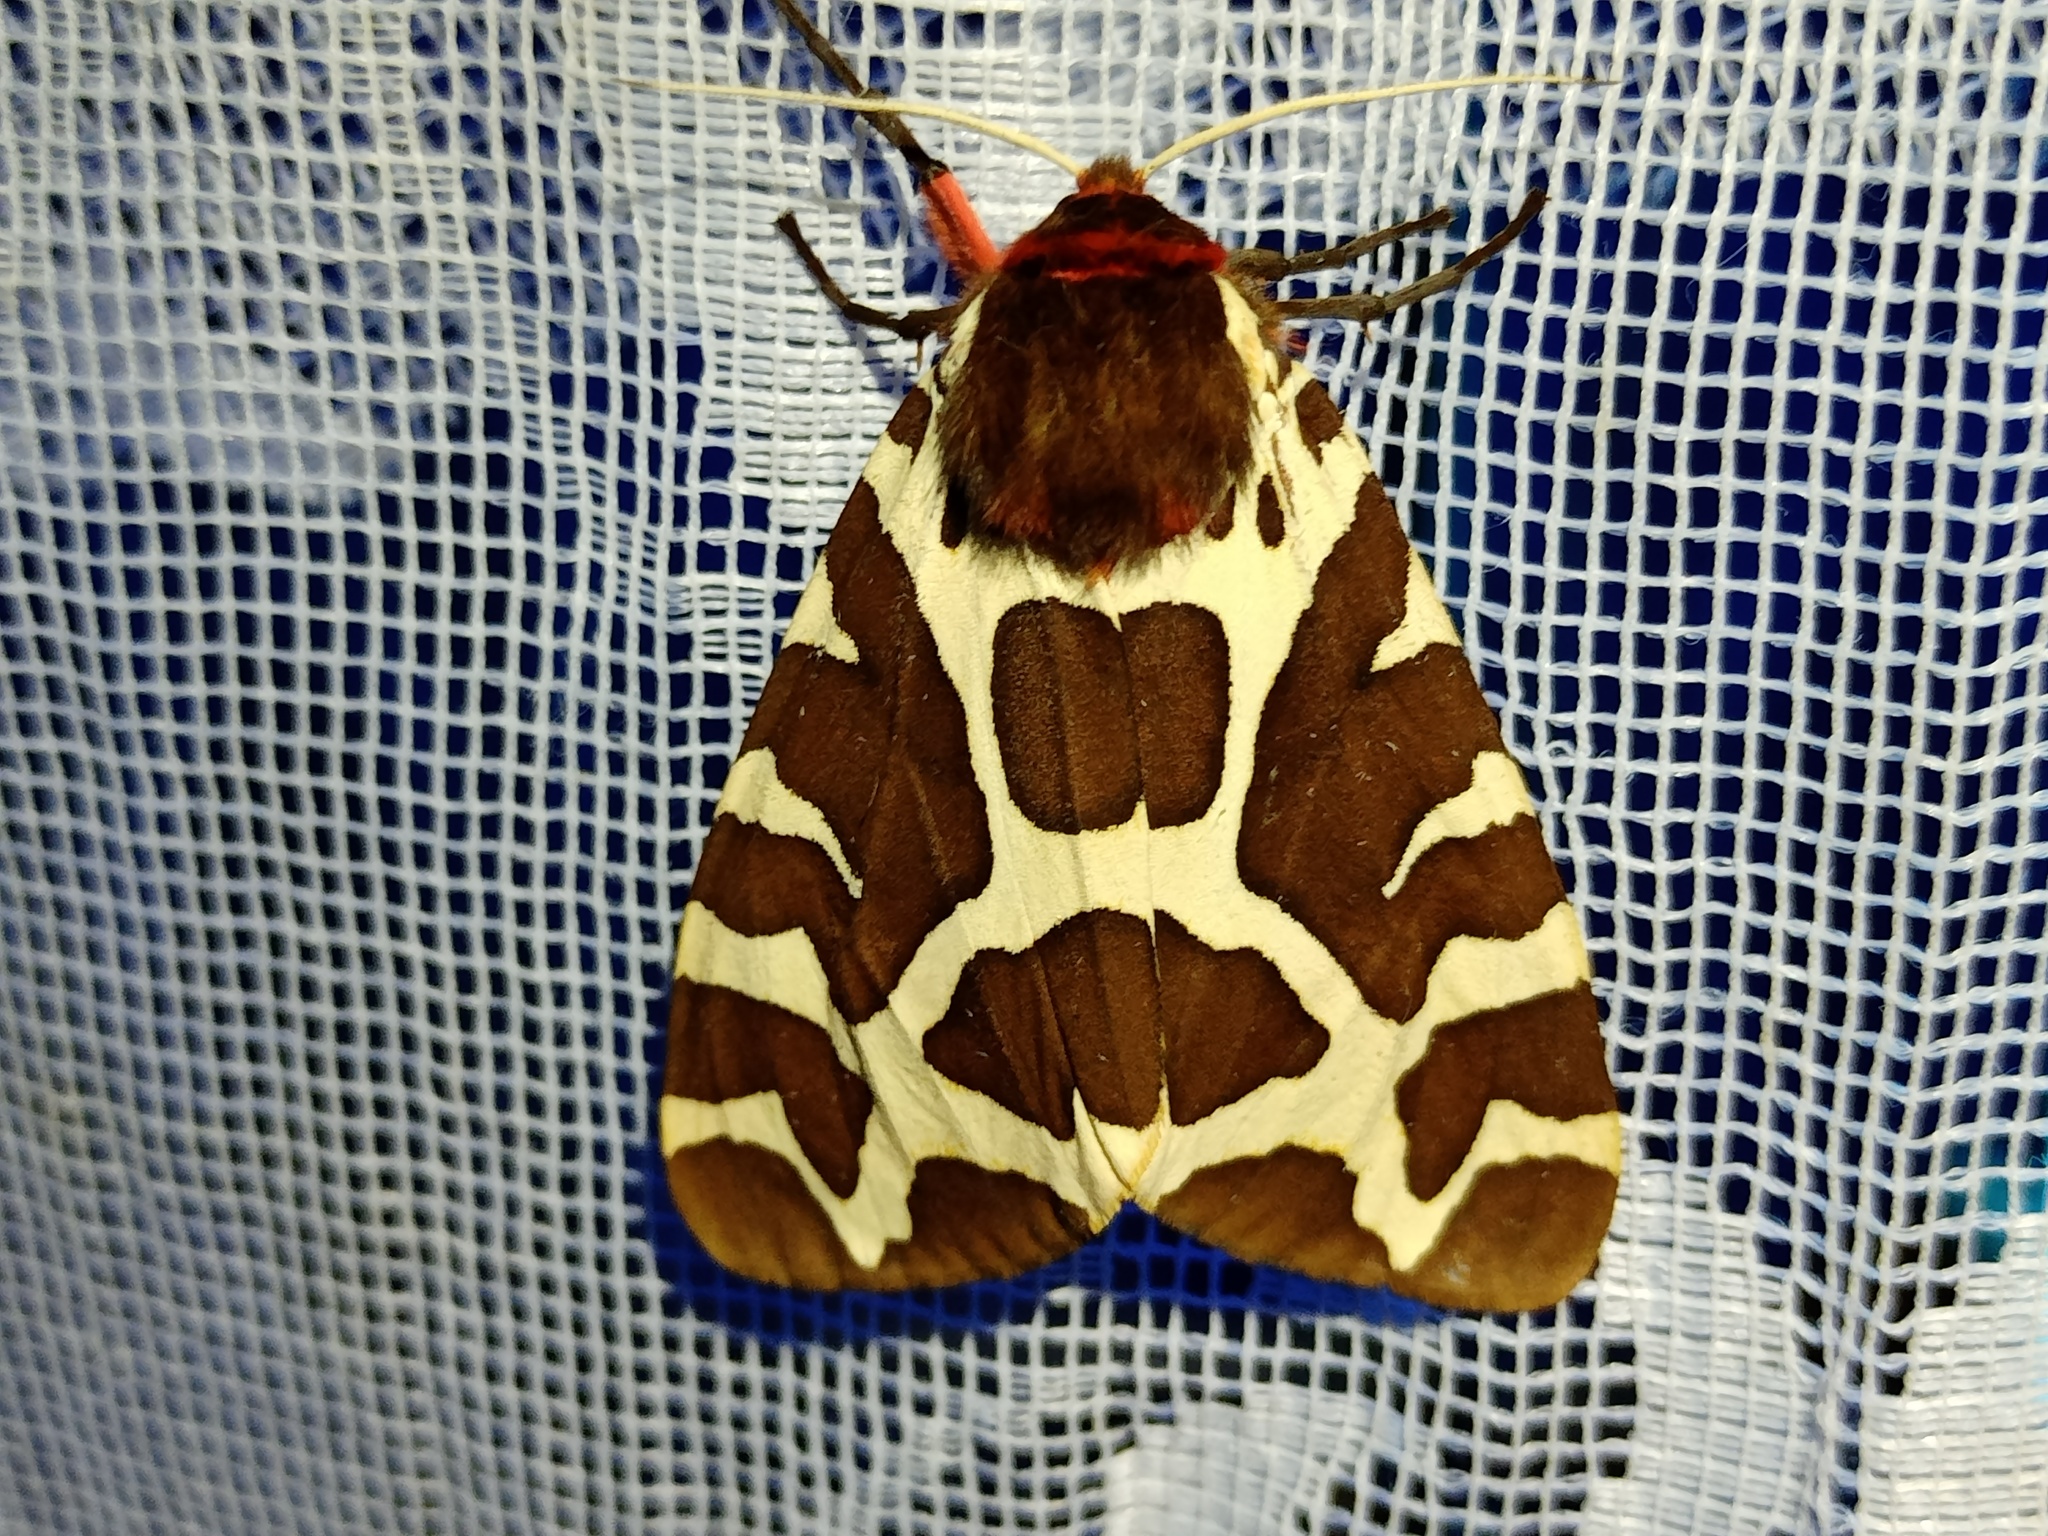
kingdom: Animalia
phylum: Arthropoda
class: Insecta
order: Lepidoptera
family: Erebidae
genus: Arctia
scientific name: Arctia caja
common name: Garden tiger
